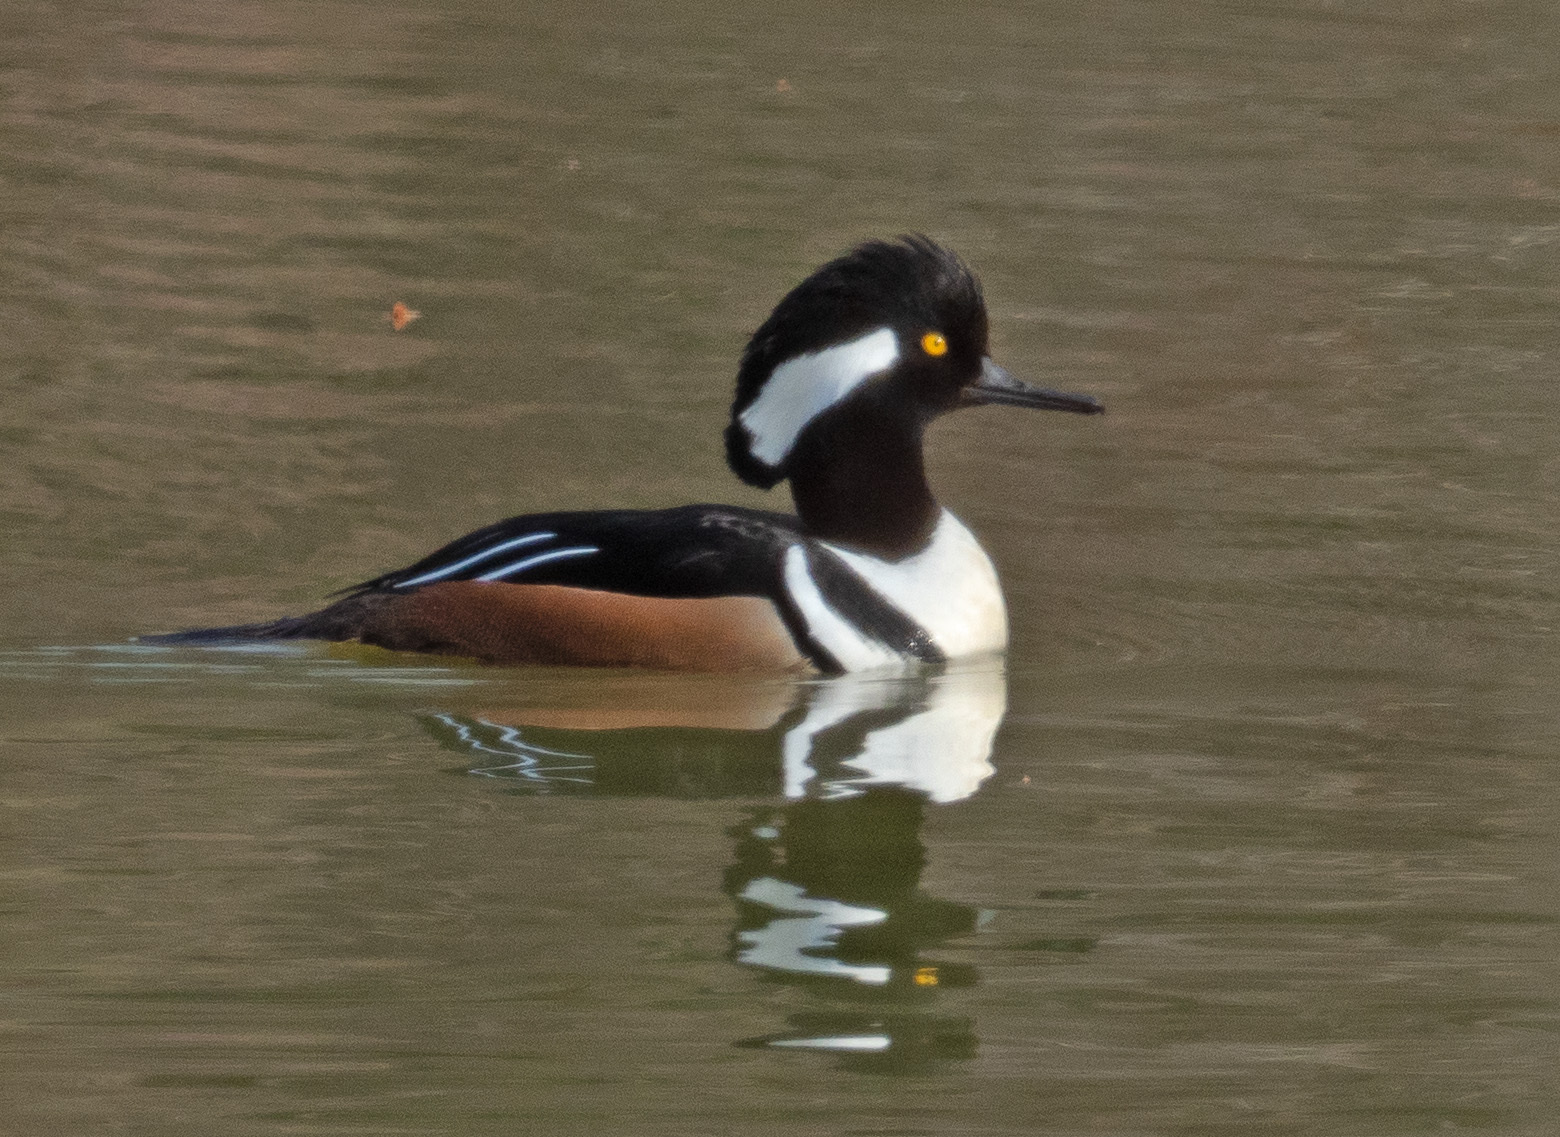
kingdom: Animalia
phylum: Chordata
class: Aves
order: Anseriformes
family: Anatidae
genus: Lophodytes
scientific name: Lophodytes cucullatus
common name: Hooded merganser
